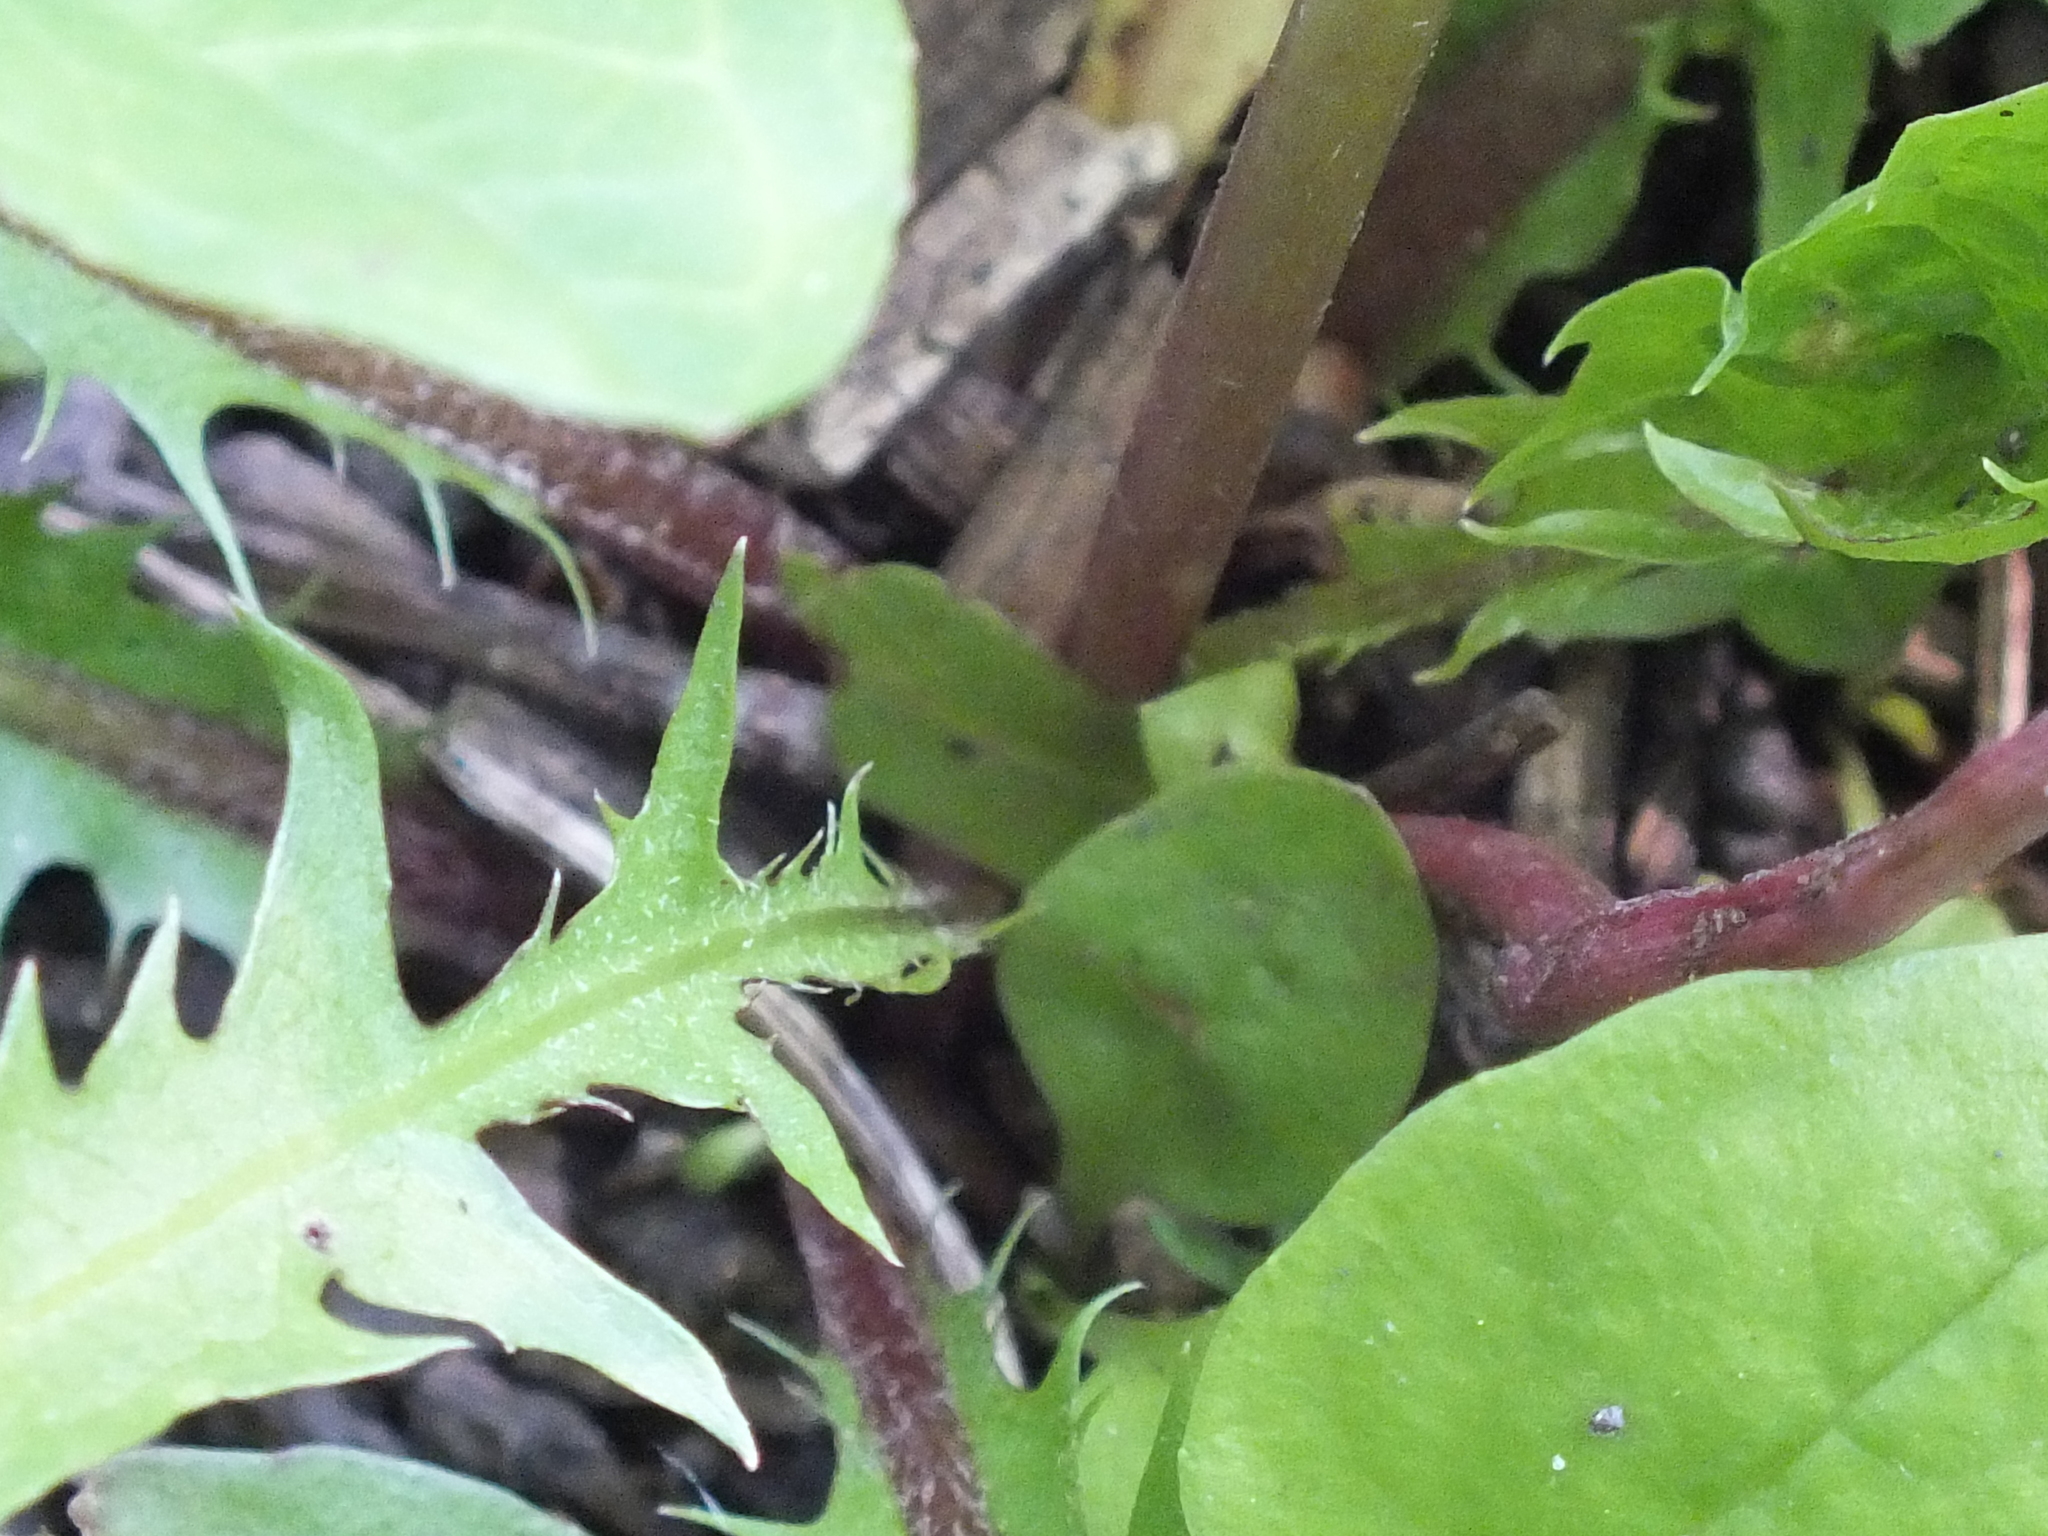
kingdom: Plantae
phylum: Tracheophyta
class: Magnoliopsida
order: Asterales
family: Asteraceae
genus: Taraxacum
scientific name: Taraxacum officinale
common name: Common dandelion
